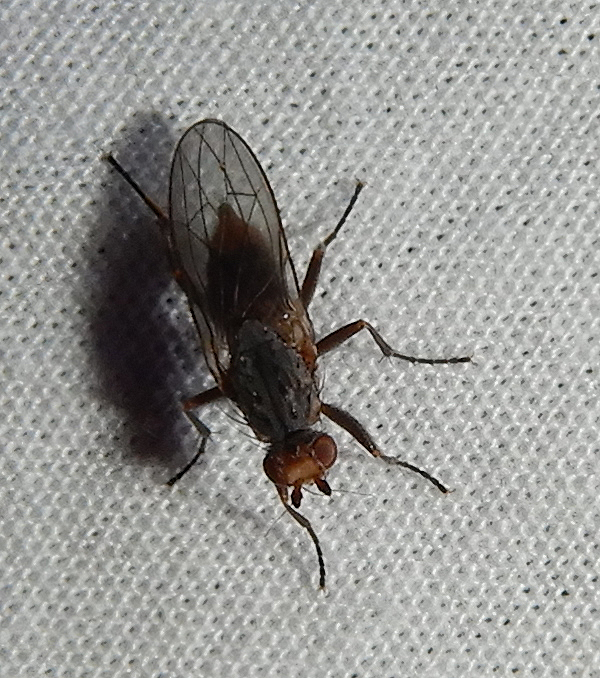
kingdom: Animalia
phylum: Arthropoda
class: Insecta
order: Diptera
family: Heleomyzidae
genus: Amoebaleria
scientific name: Amoebaleria
